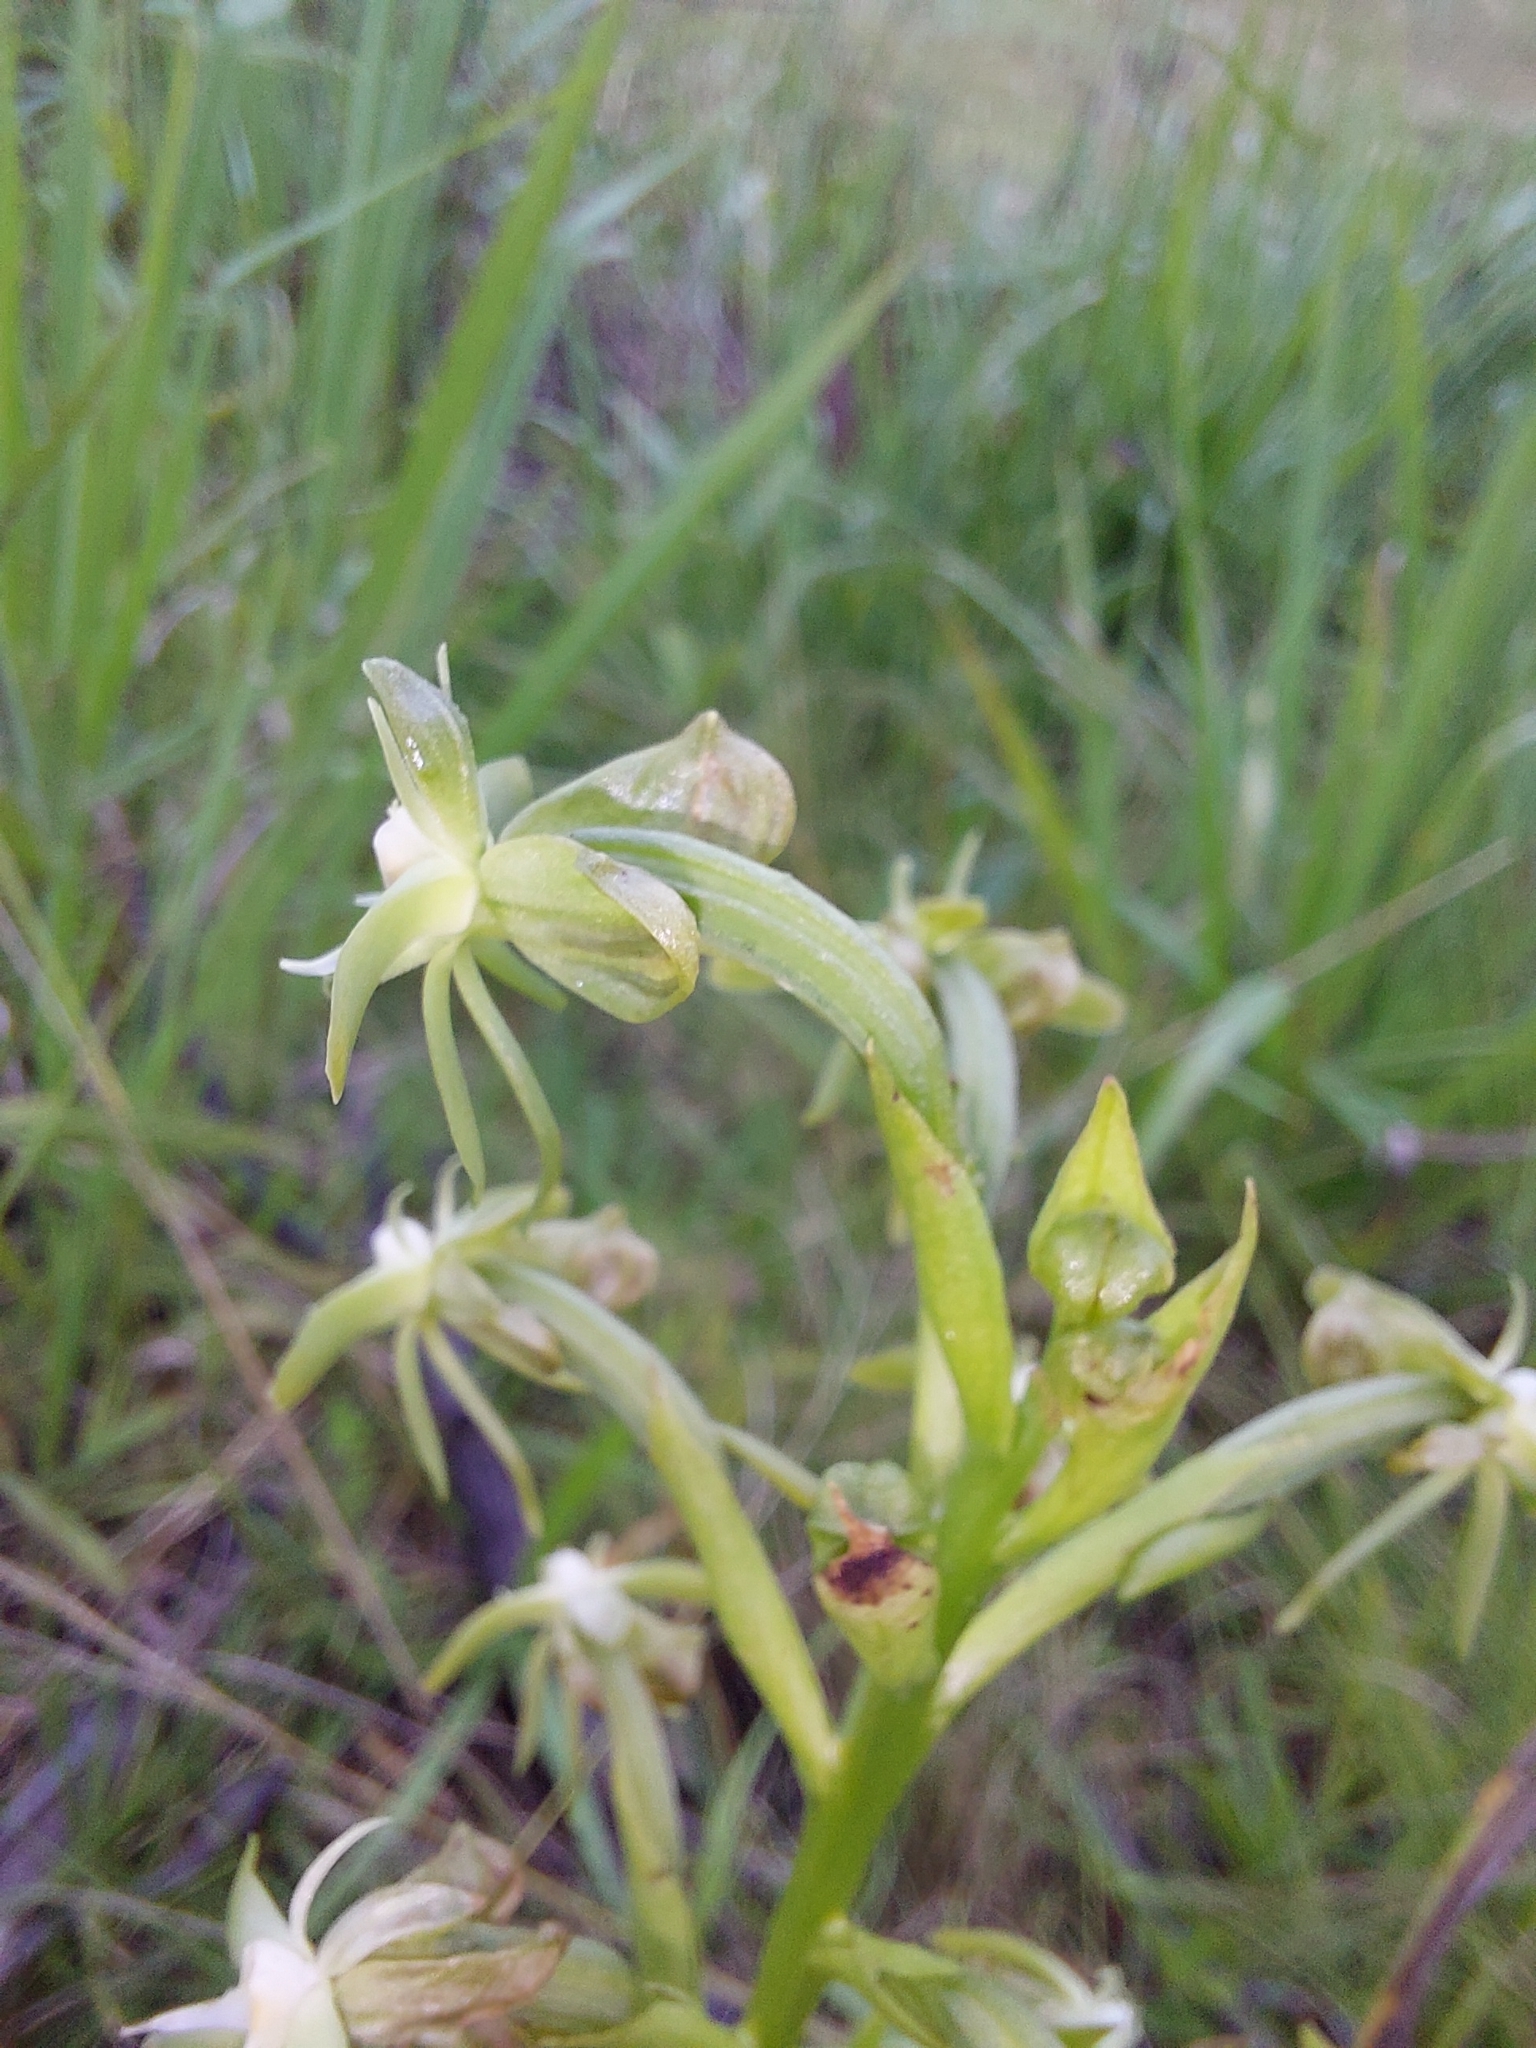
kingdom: Plantae
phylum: Tracheophyta
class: Liliopsida
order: Asparagales
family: Orchidaceae
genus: Habenaria
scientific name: Habenaria humilior
